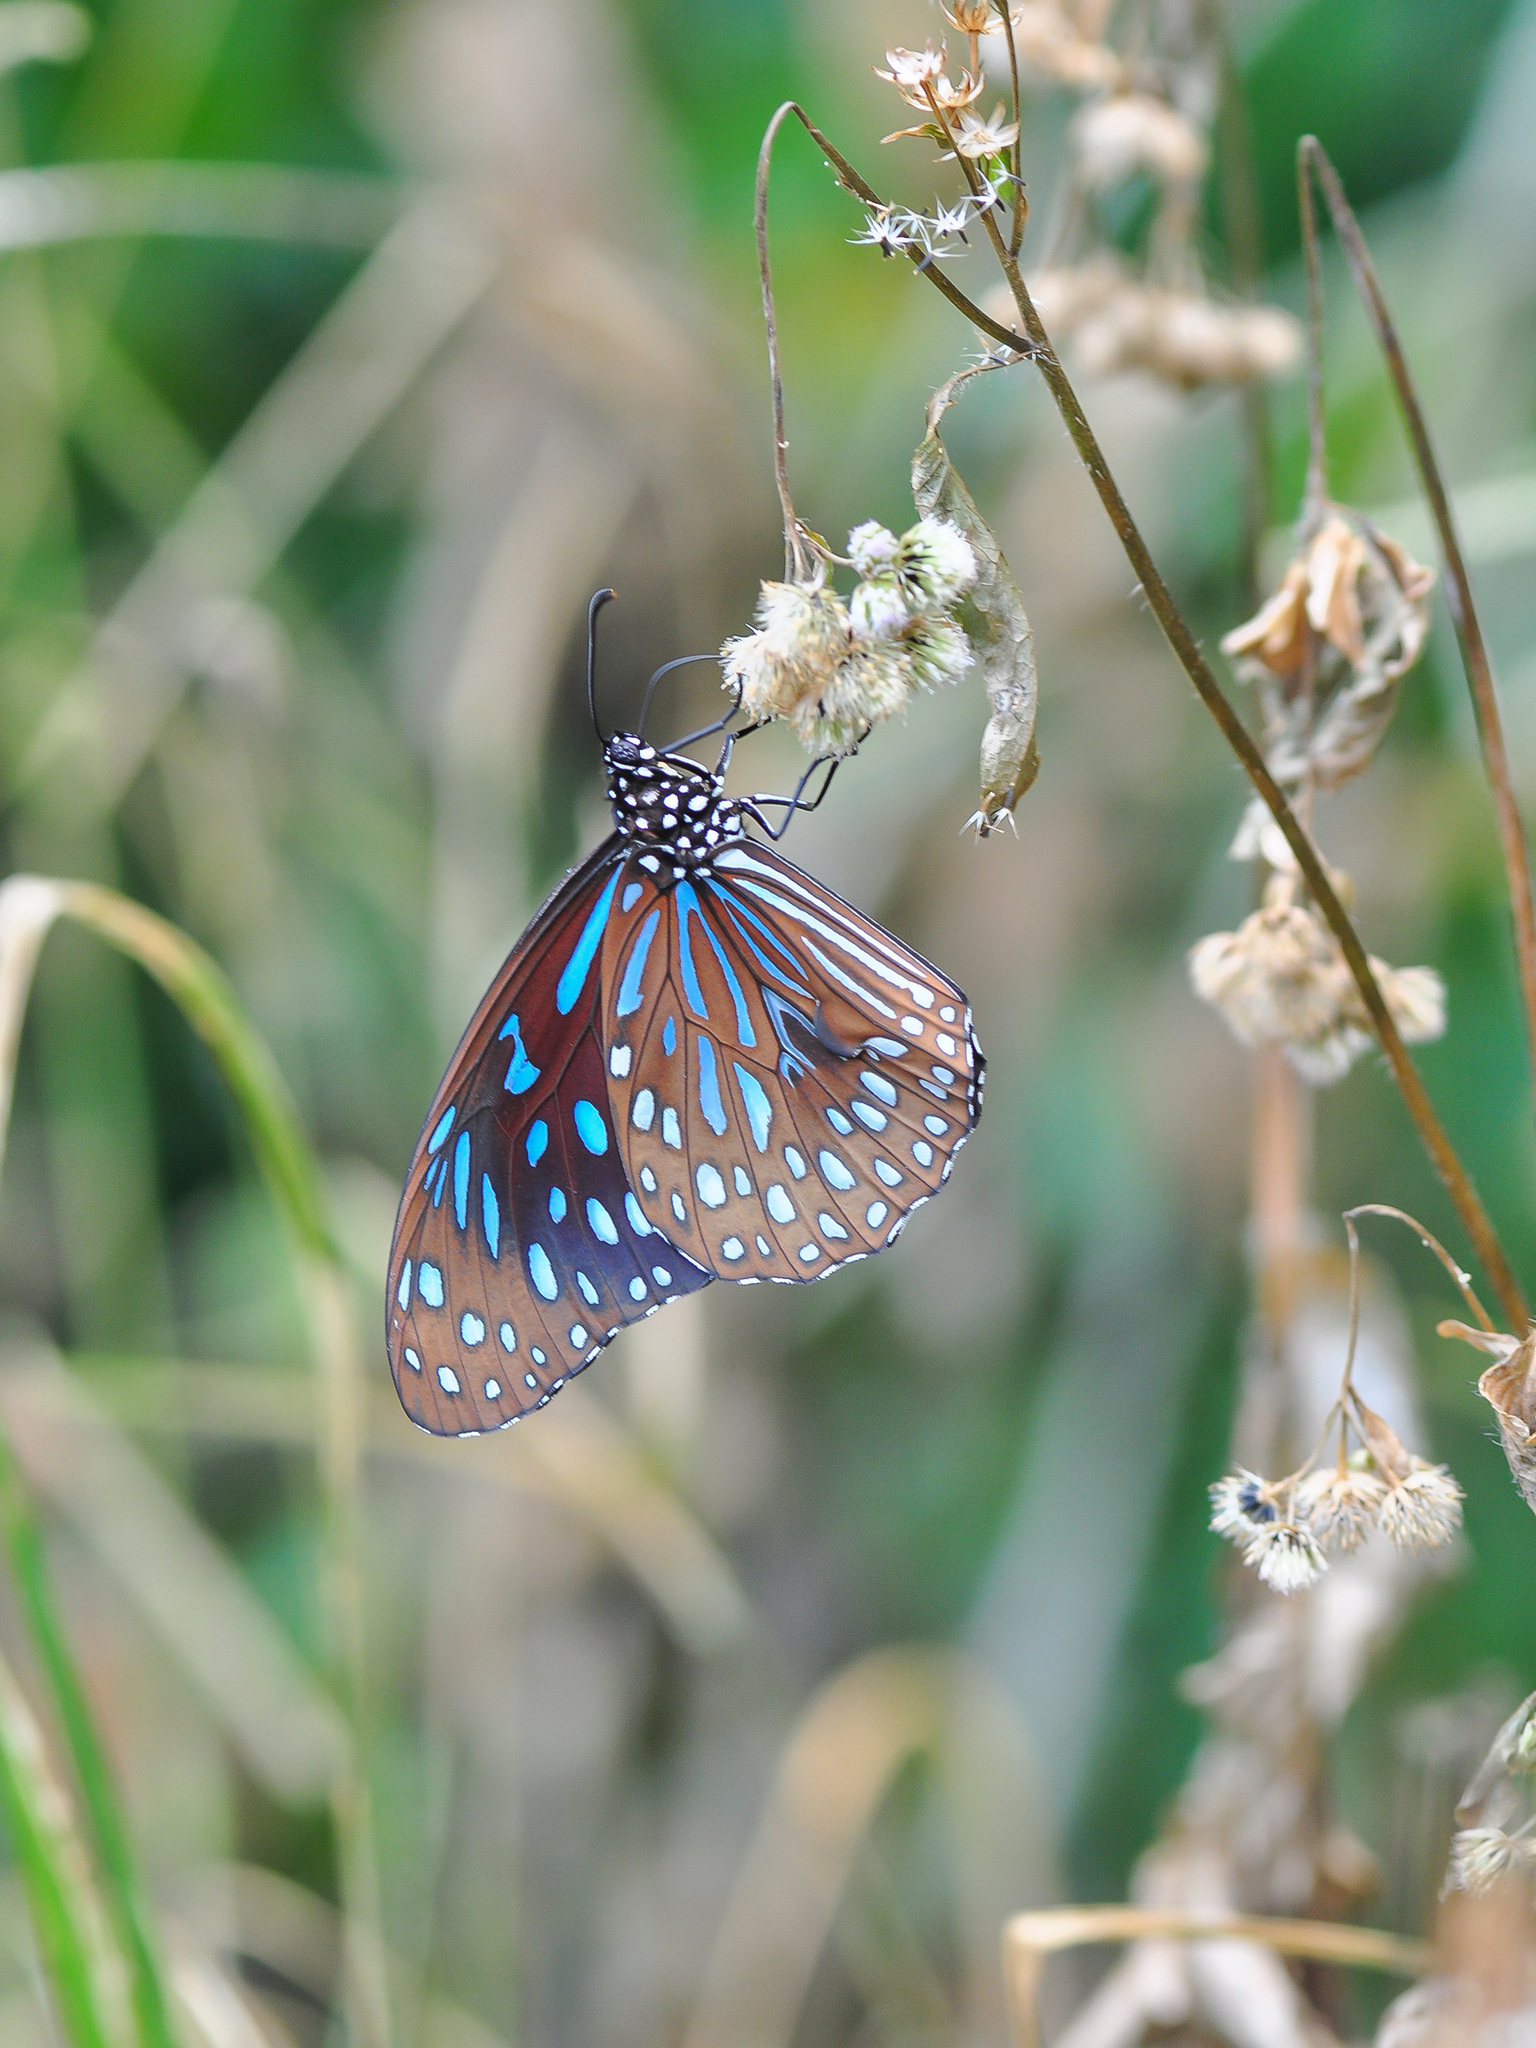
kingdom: Animalia
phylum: Arthropoda
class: Insecta
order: Lepidoptera
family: Nymphalidae
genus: Tirumala
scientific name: Tirumala septentrionis
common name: Dark blue tiger butterfly
